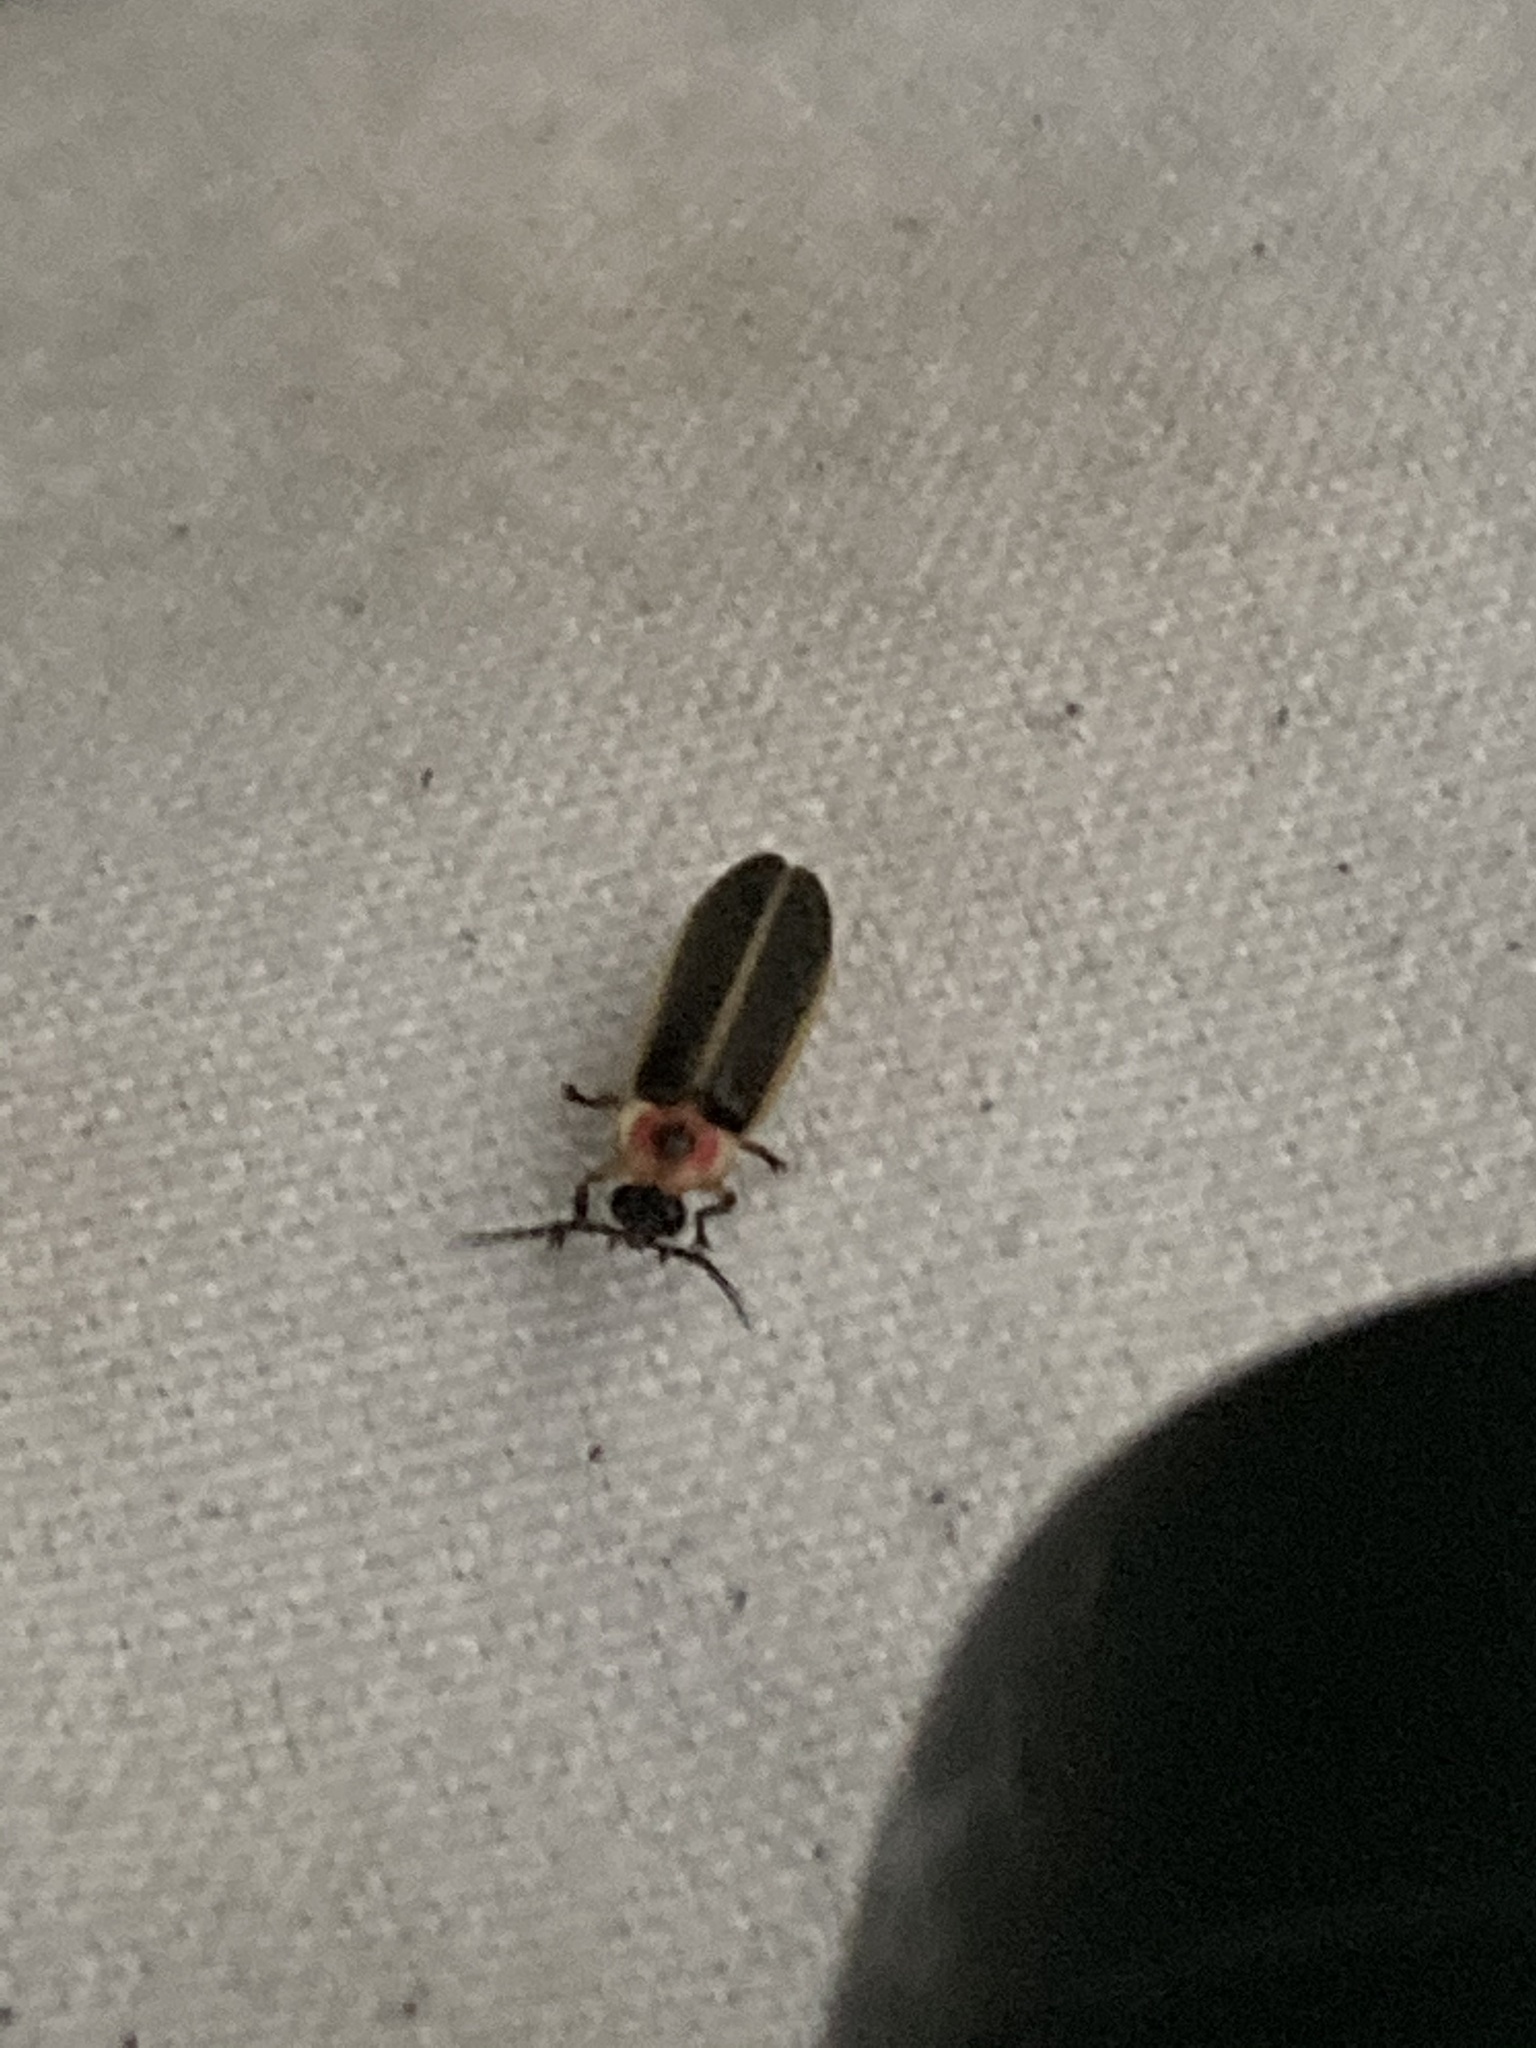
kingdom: Animalia
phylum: Arthropoda
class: Insecta
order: Coleoptera
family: Lampyridae
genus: Photinus
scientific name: Photinus pyralis
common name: Big dipper firefly
